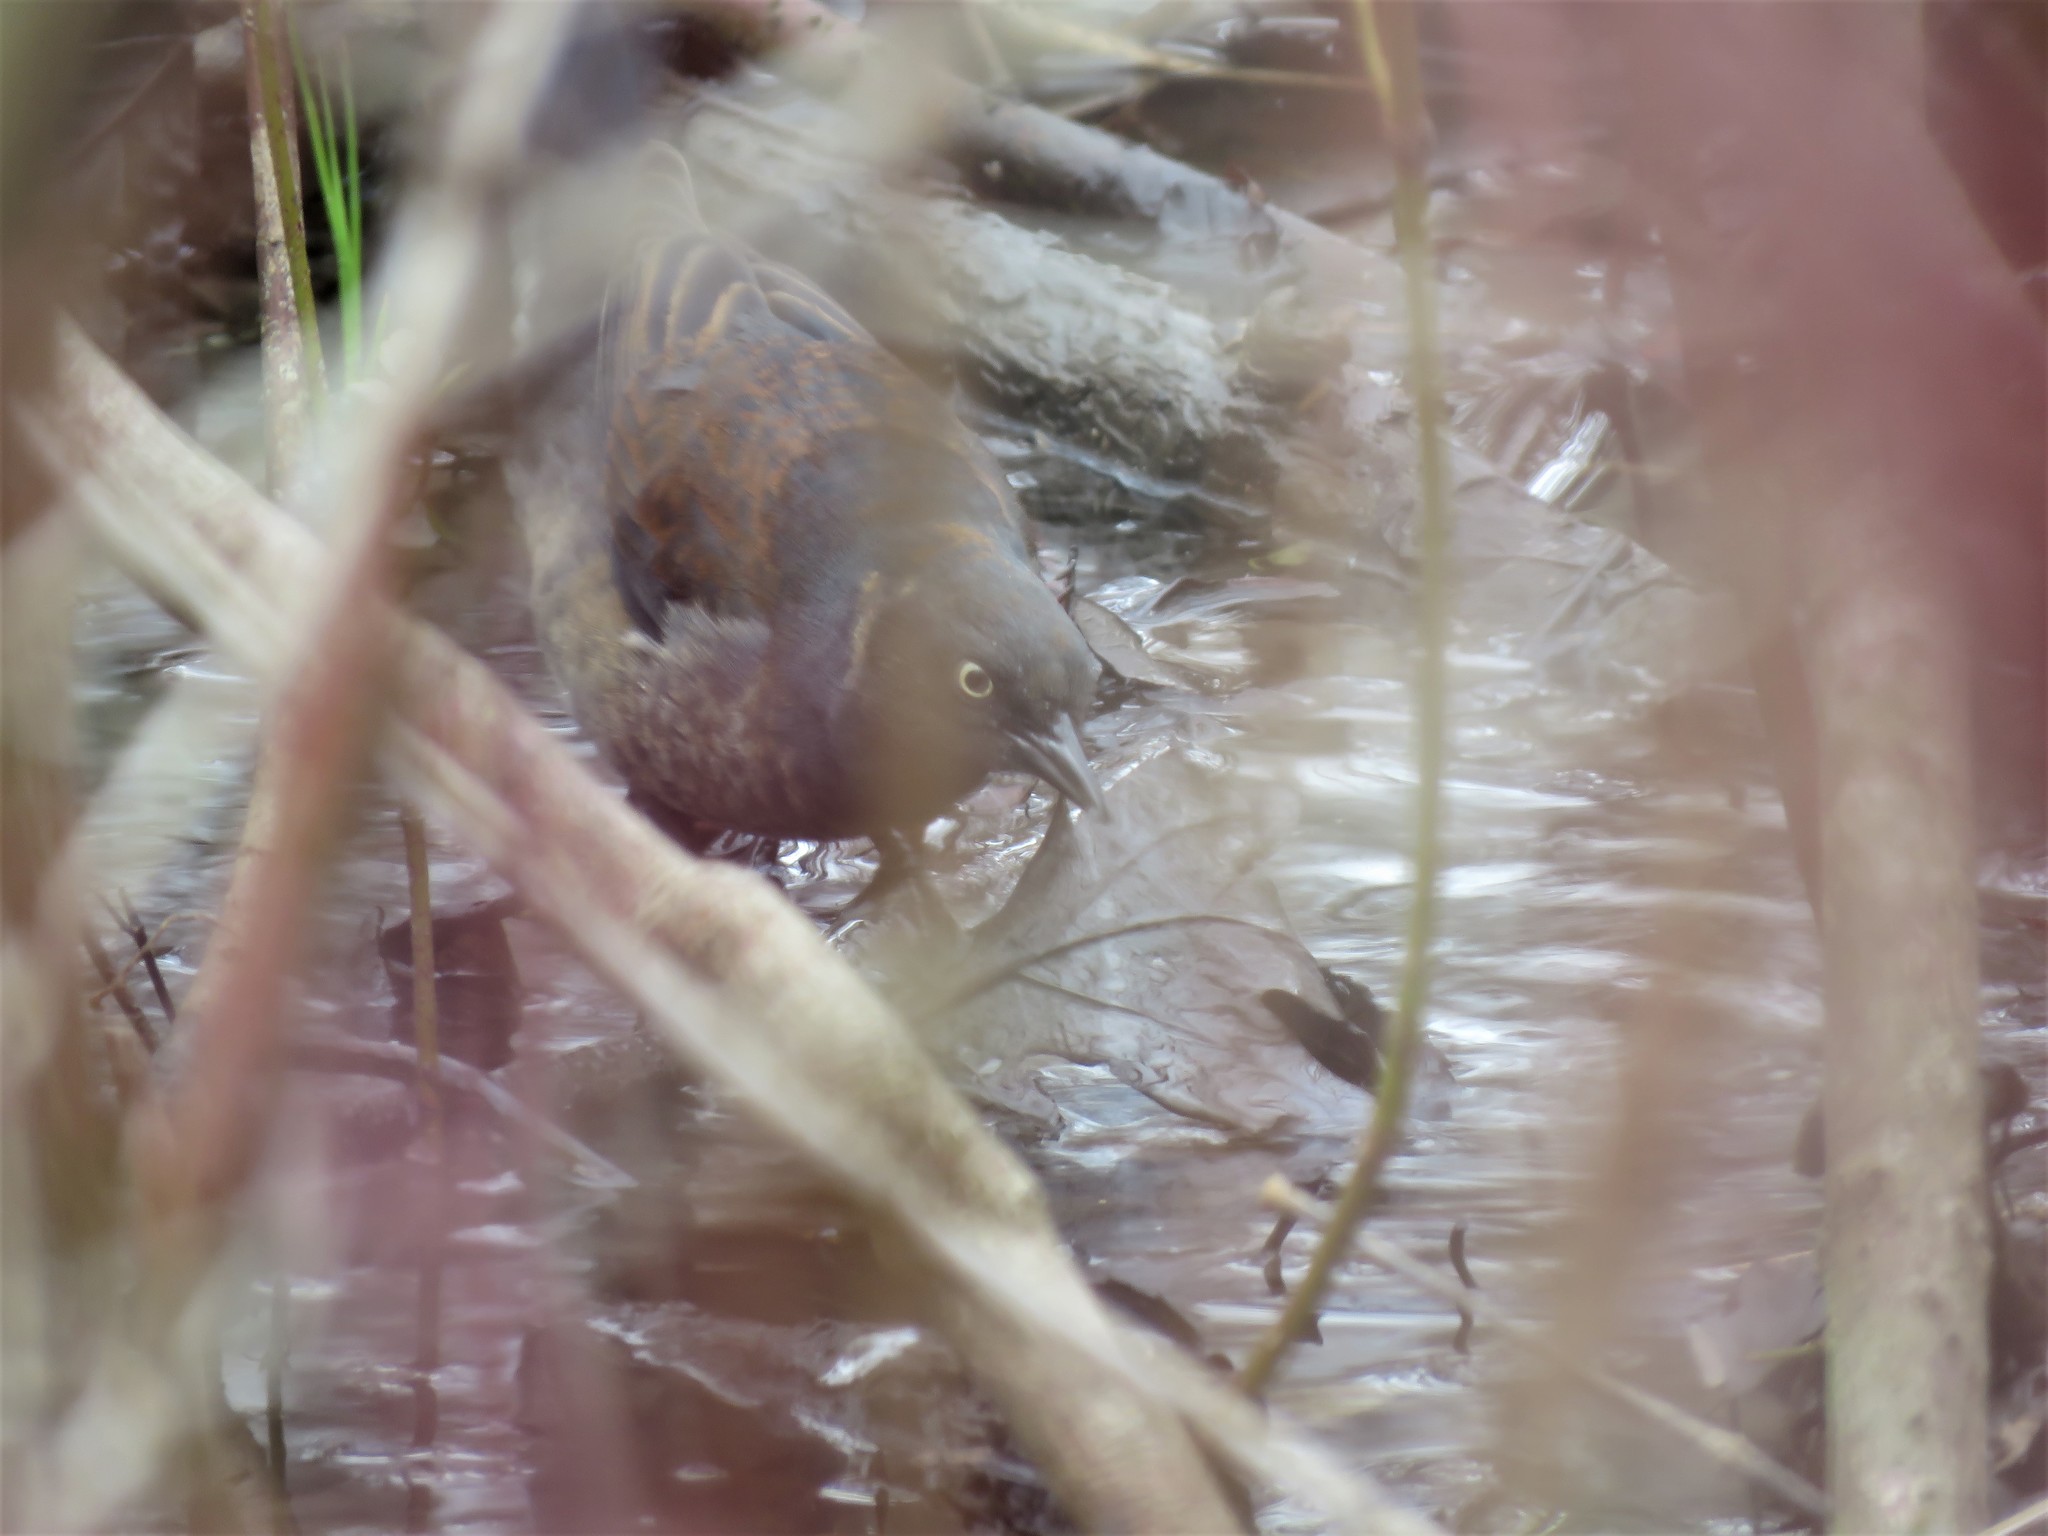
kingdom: Animalia
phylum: Chordata
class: Aves
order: Passeriformes
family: Icteridae
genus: Euphagus
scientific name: Euphagus carolinus
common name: Rusty blackbird
